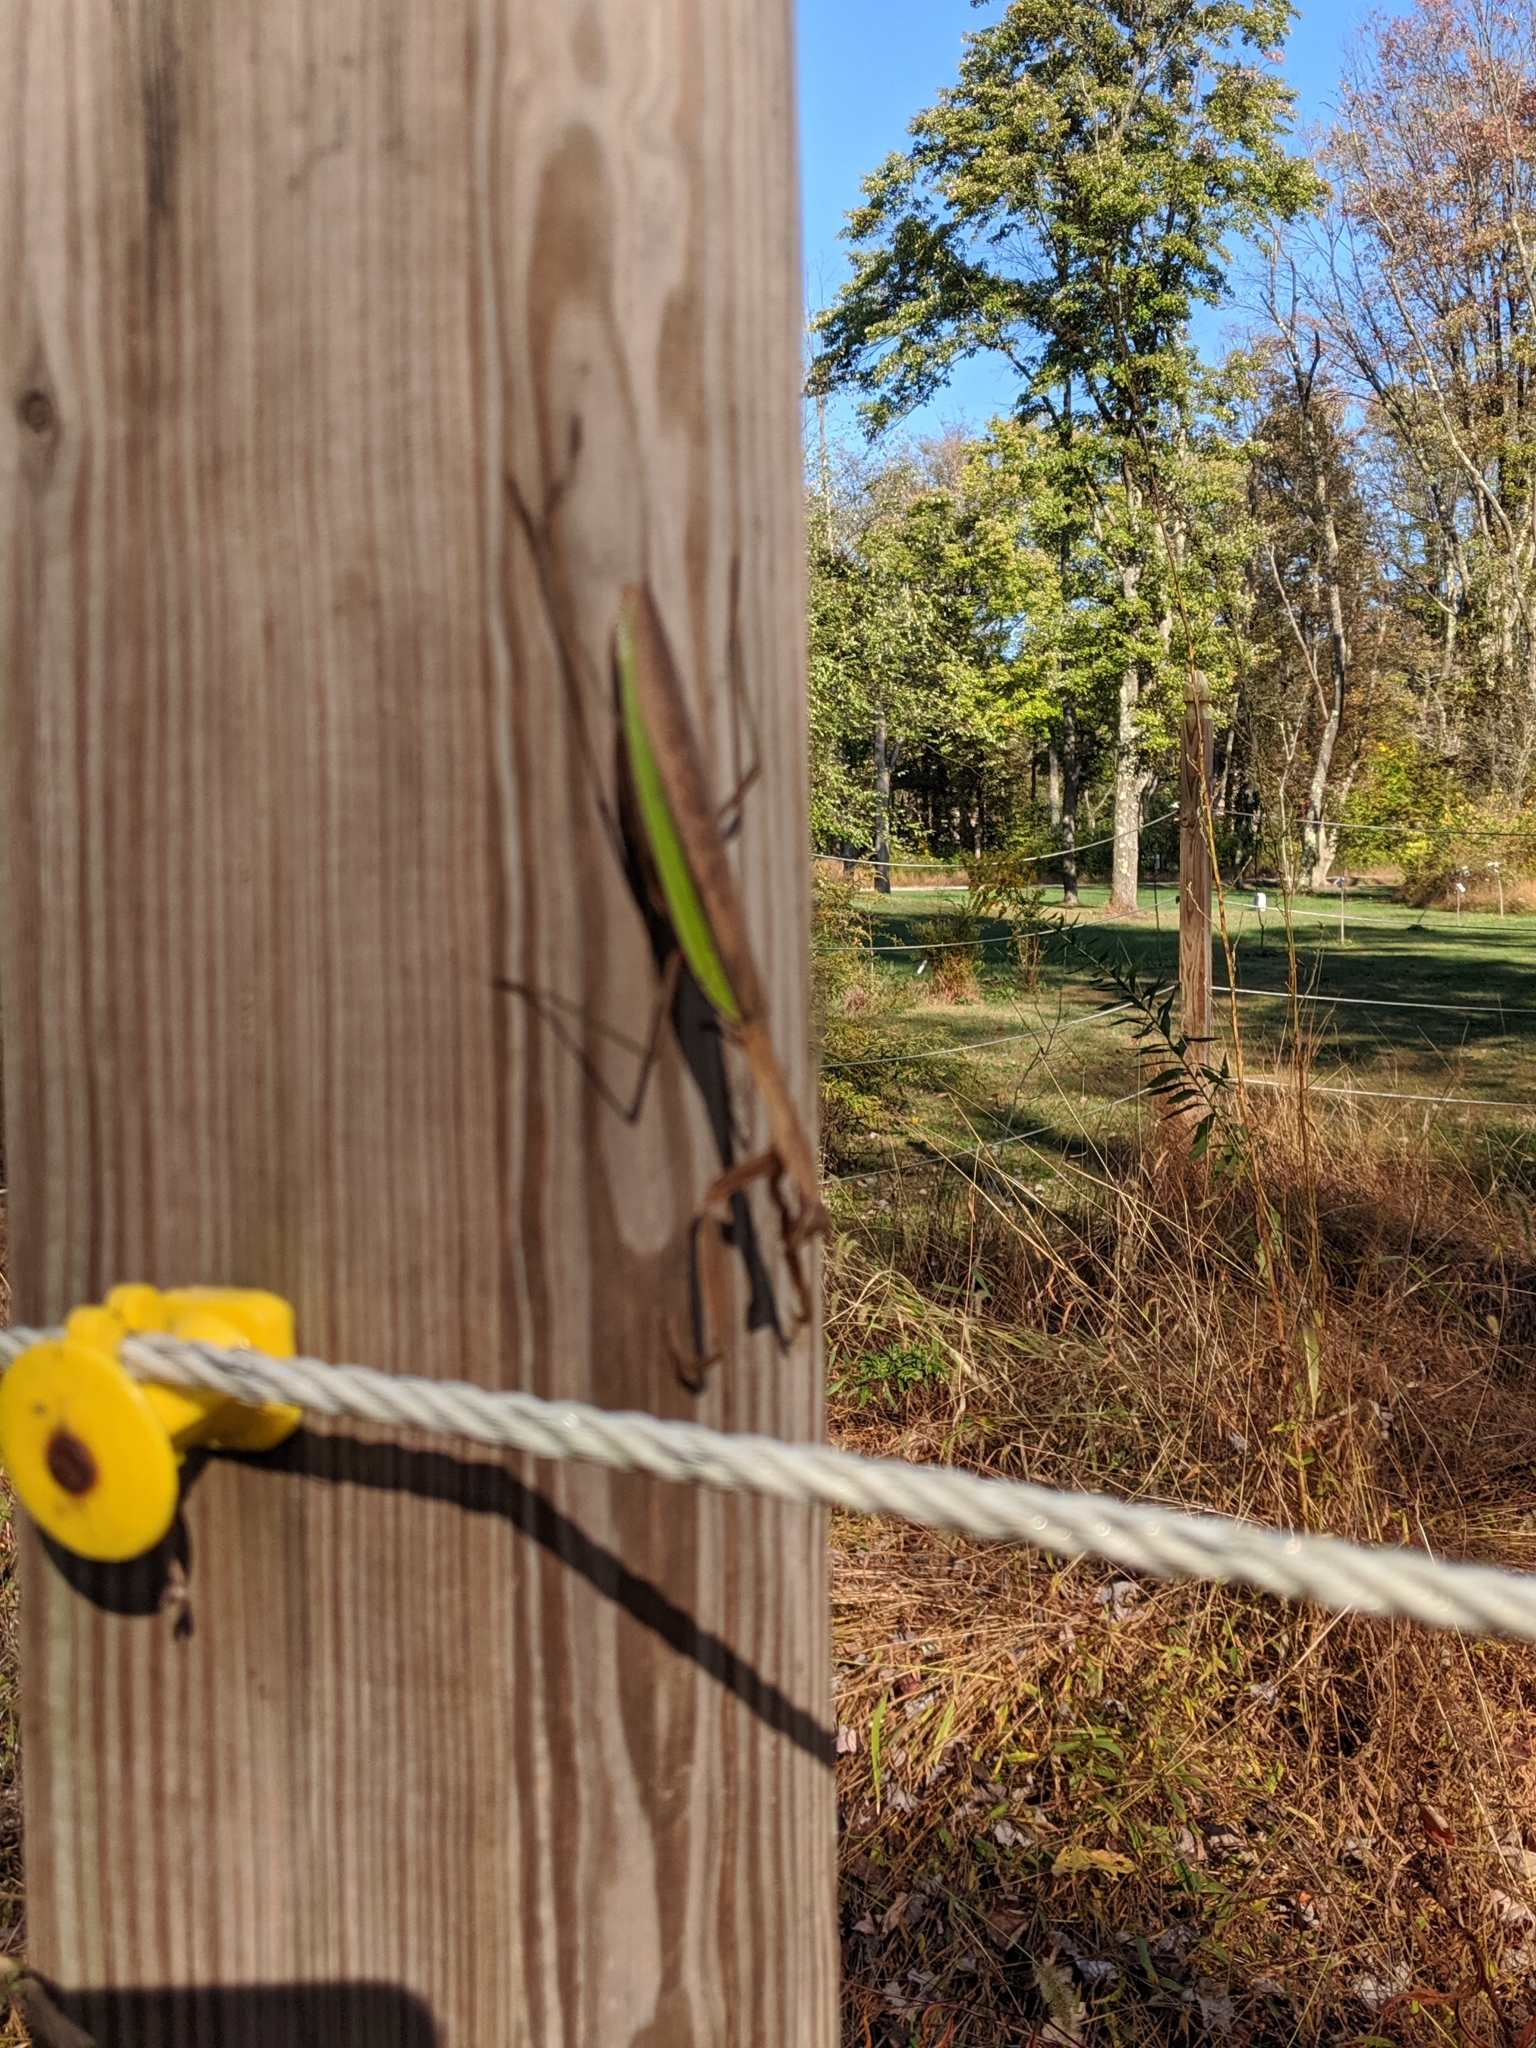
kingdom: Animalia
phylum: Arthropoda
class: Insecta
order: Mantodea
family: Mantidae
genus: Tenodera
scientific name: Tenodera sinensis
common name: Chinese mantis
